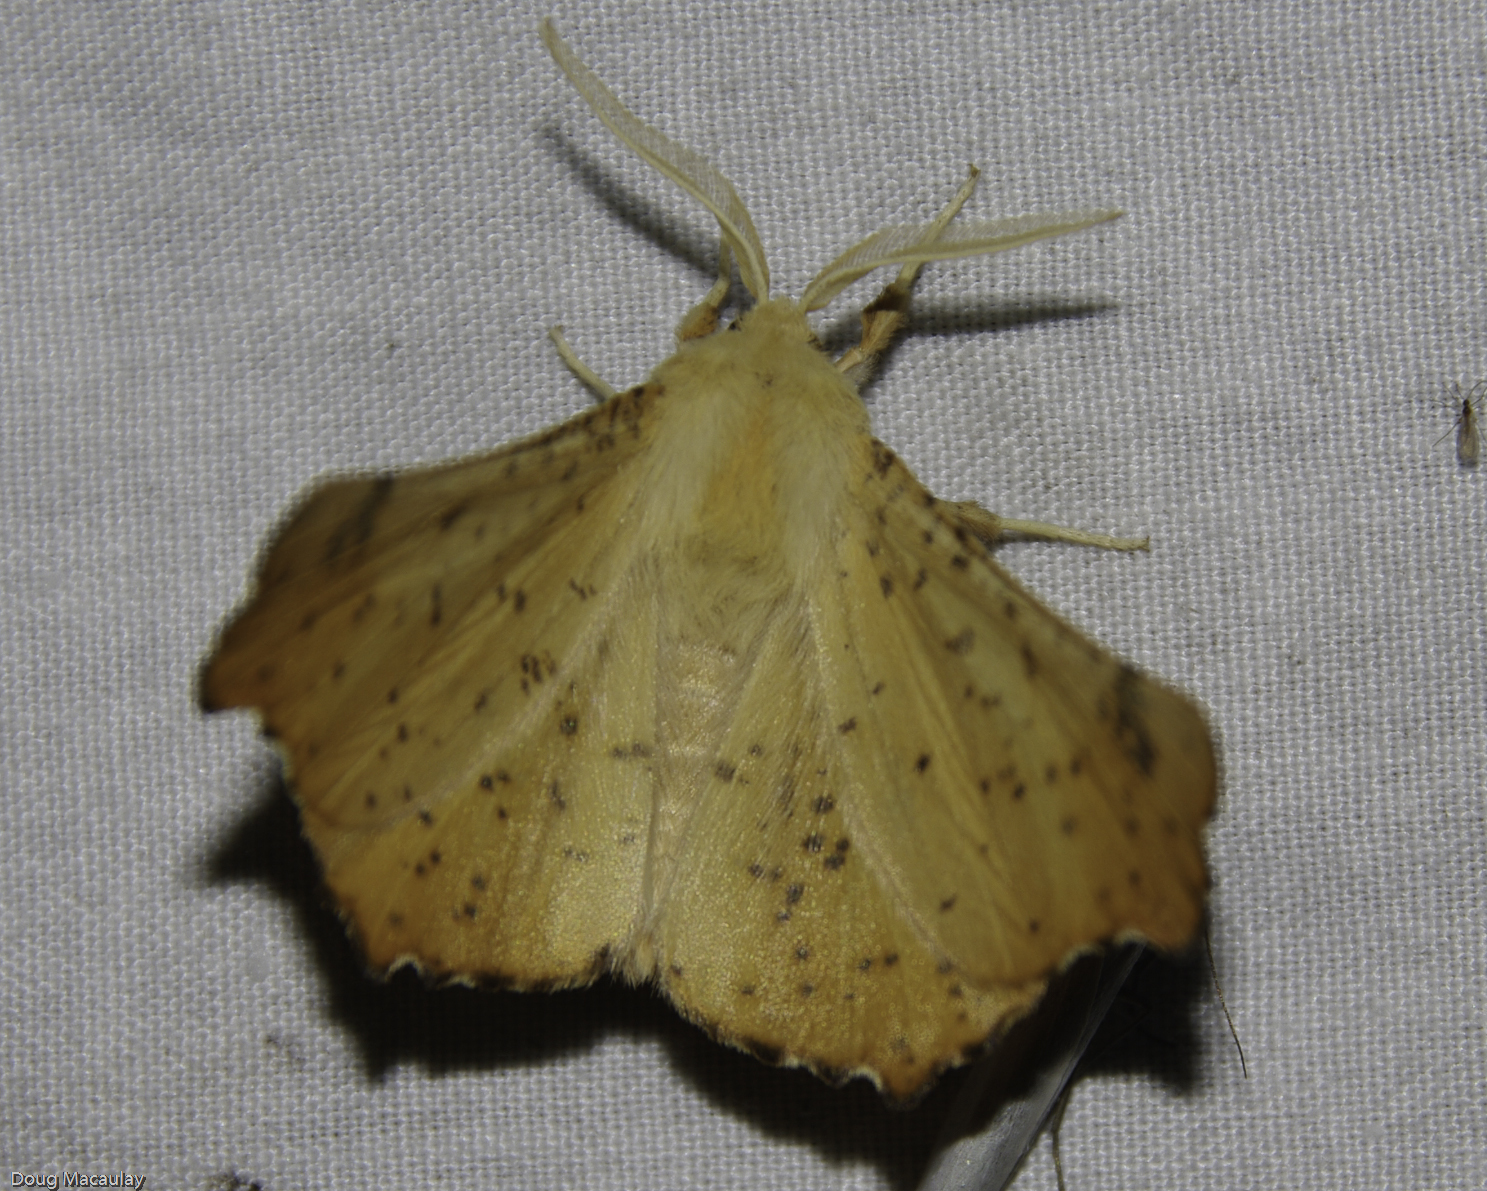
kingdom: Animalia
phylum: Arthropoda
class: Insecta
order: Lepidoptera
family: Geometridae
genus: Ennomos
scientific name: Ennomos magnaria
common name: Maple spanworm
